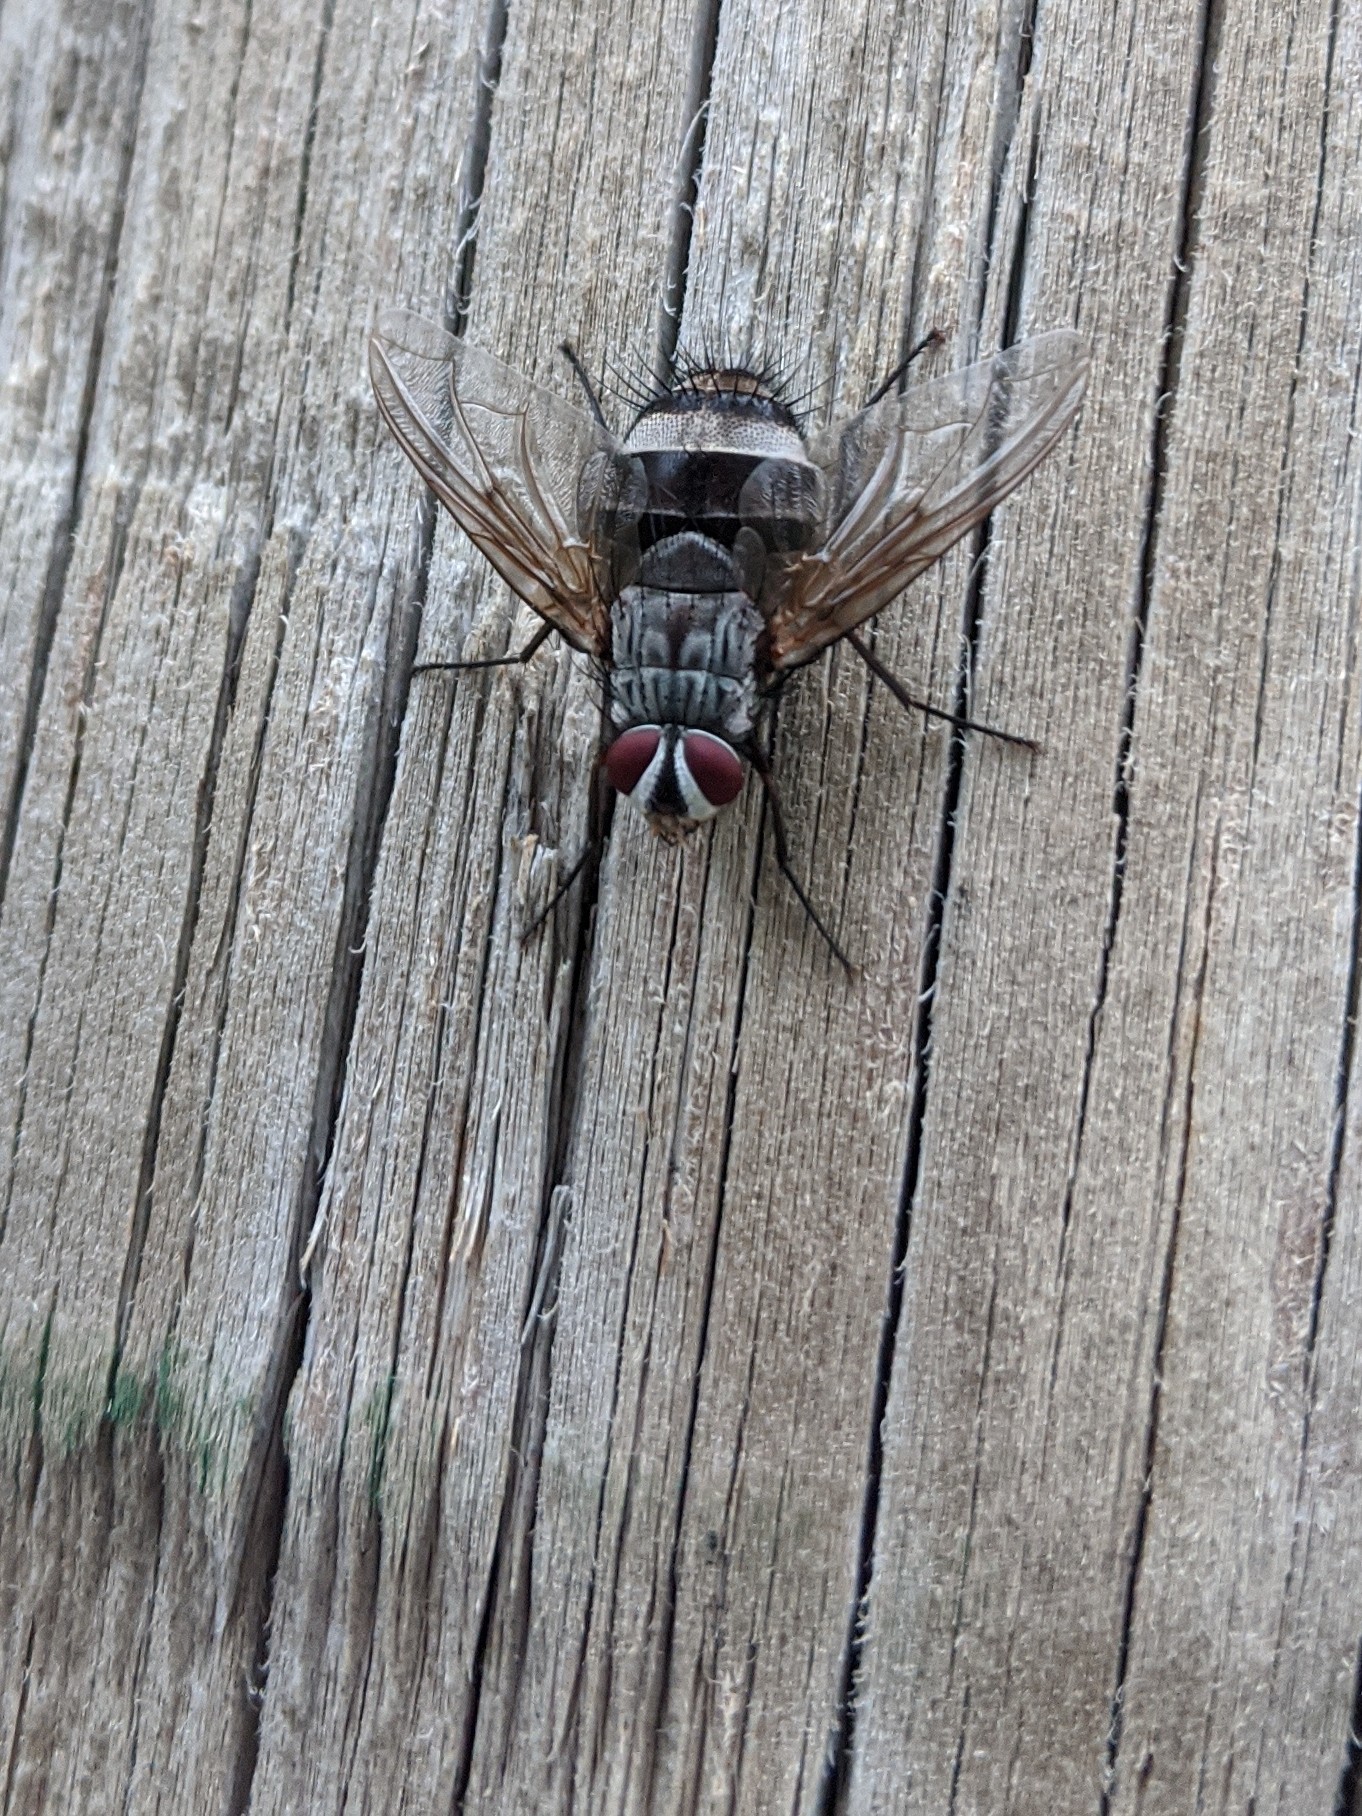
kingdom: Animalia
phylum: Arthropoda
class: Insecta
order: Diptera
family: Tachinidae
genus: Billaea
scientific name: Billaea rutilans
